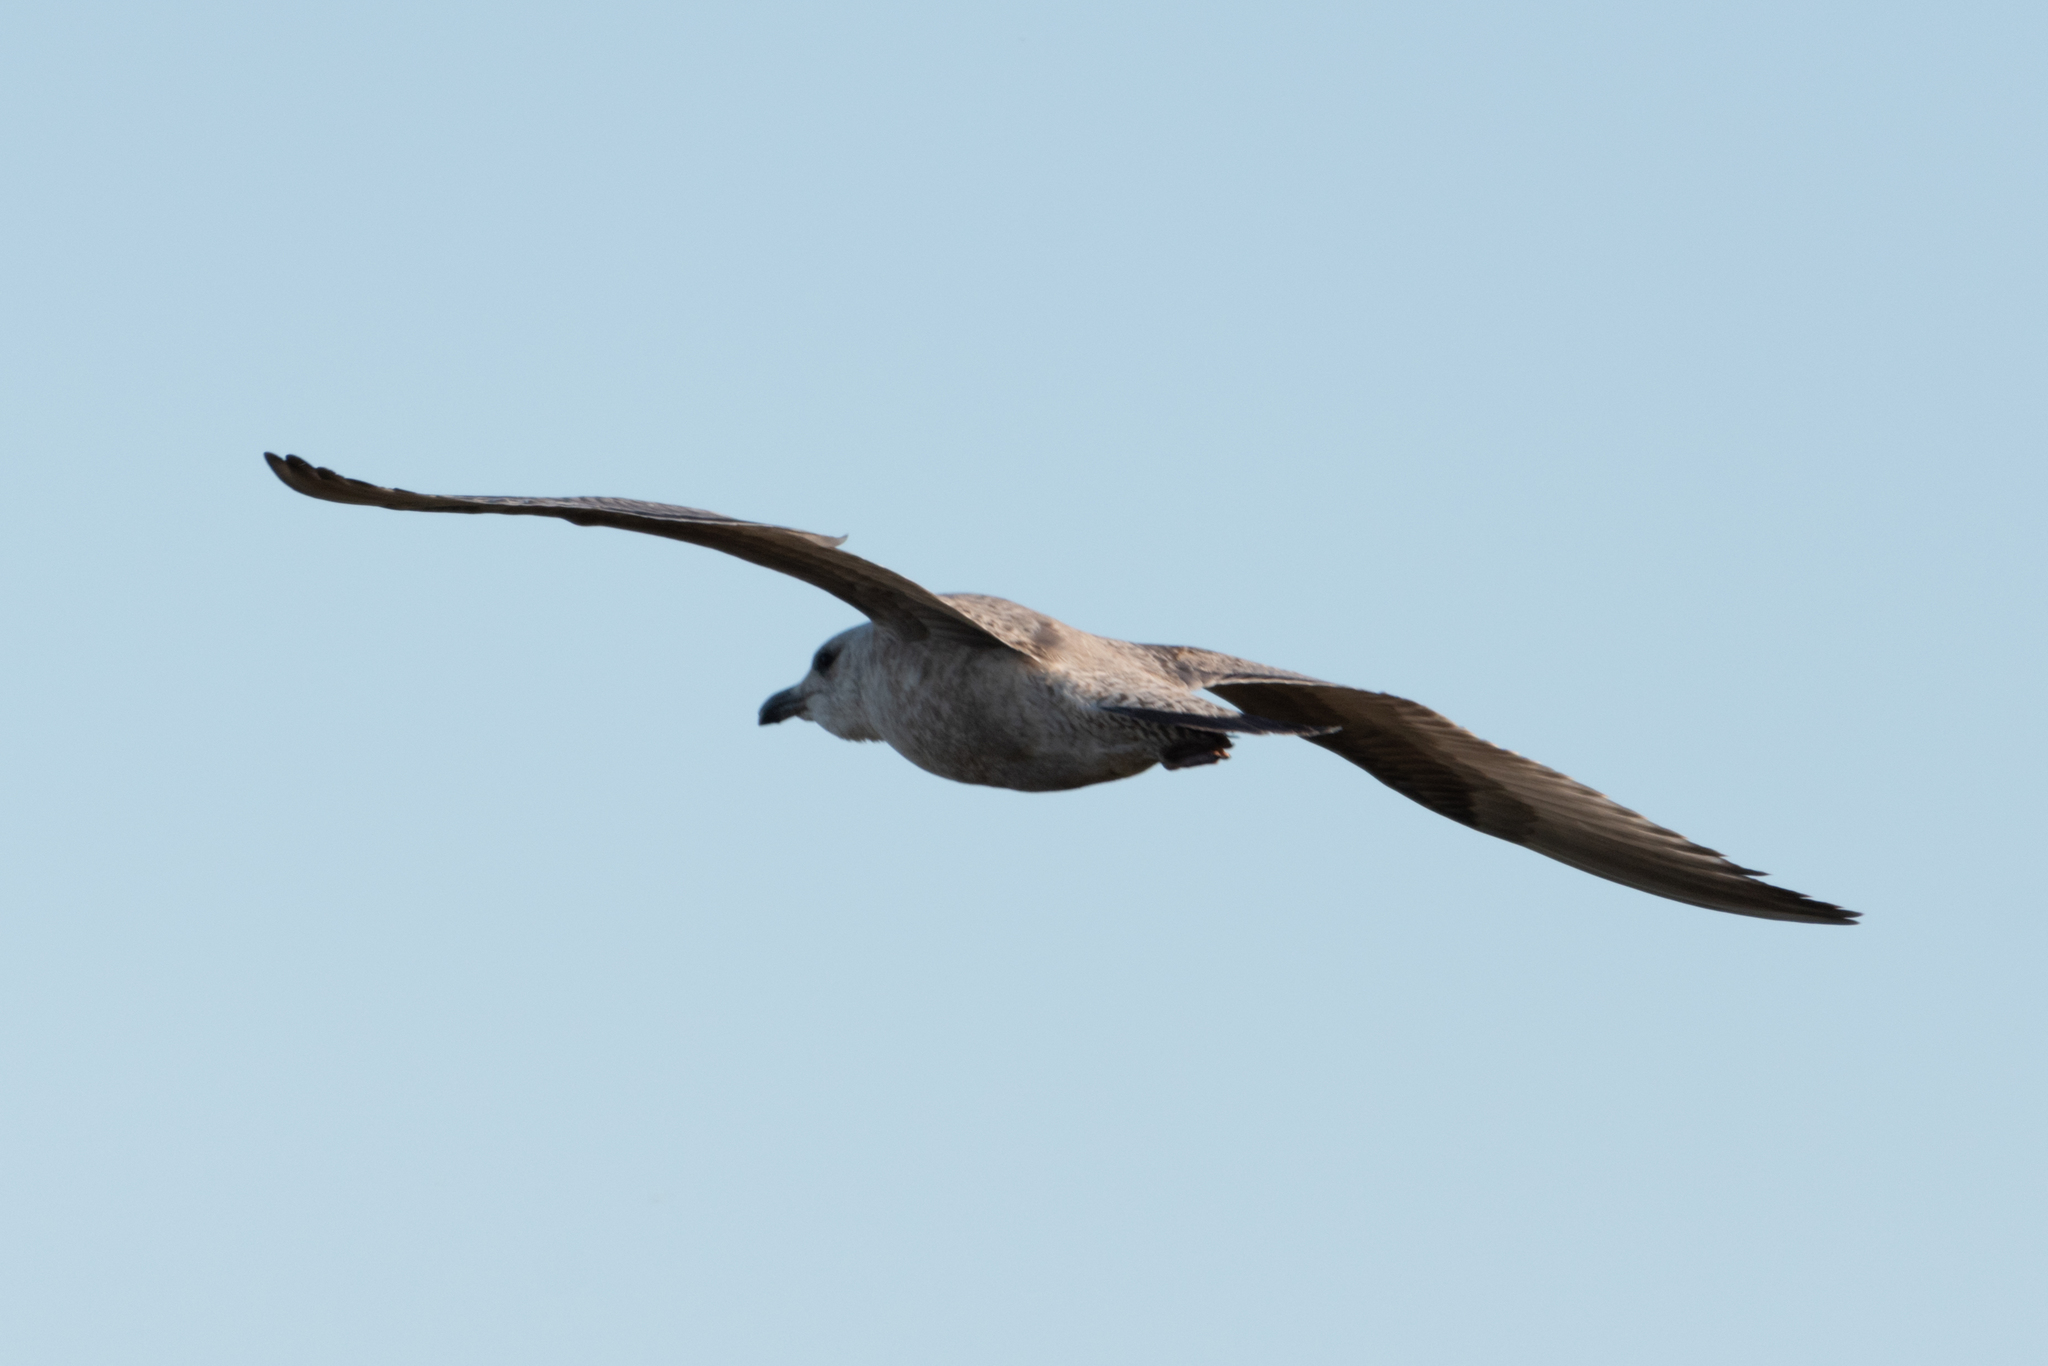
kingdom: Animalia
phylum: Chordata
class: Aves
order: Charadriiformes
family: Laridae
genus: Larus
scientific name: Larus
